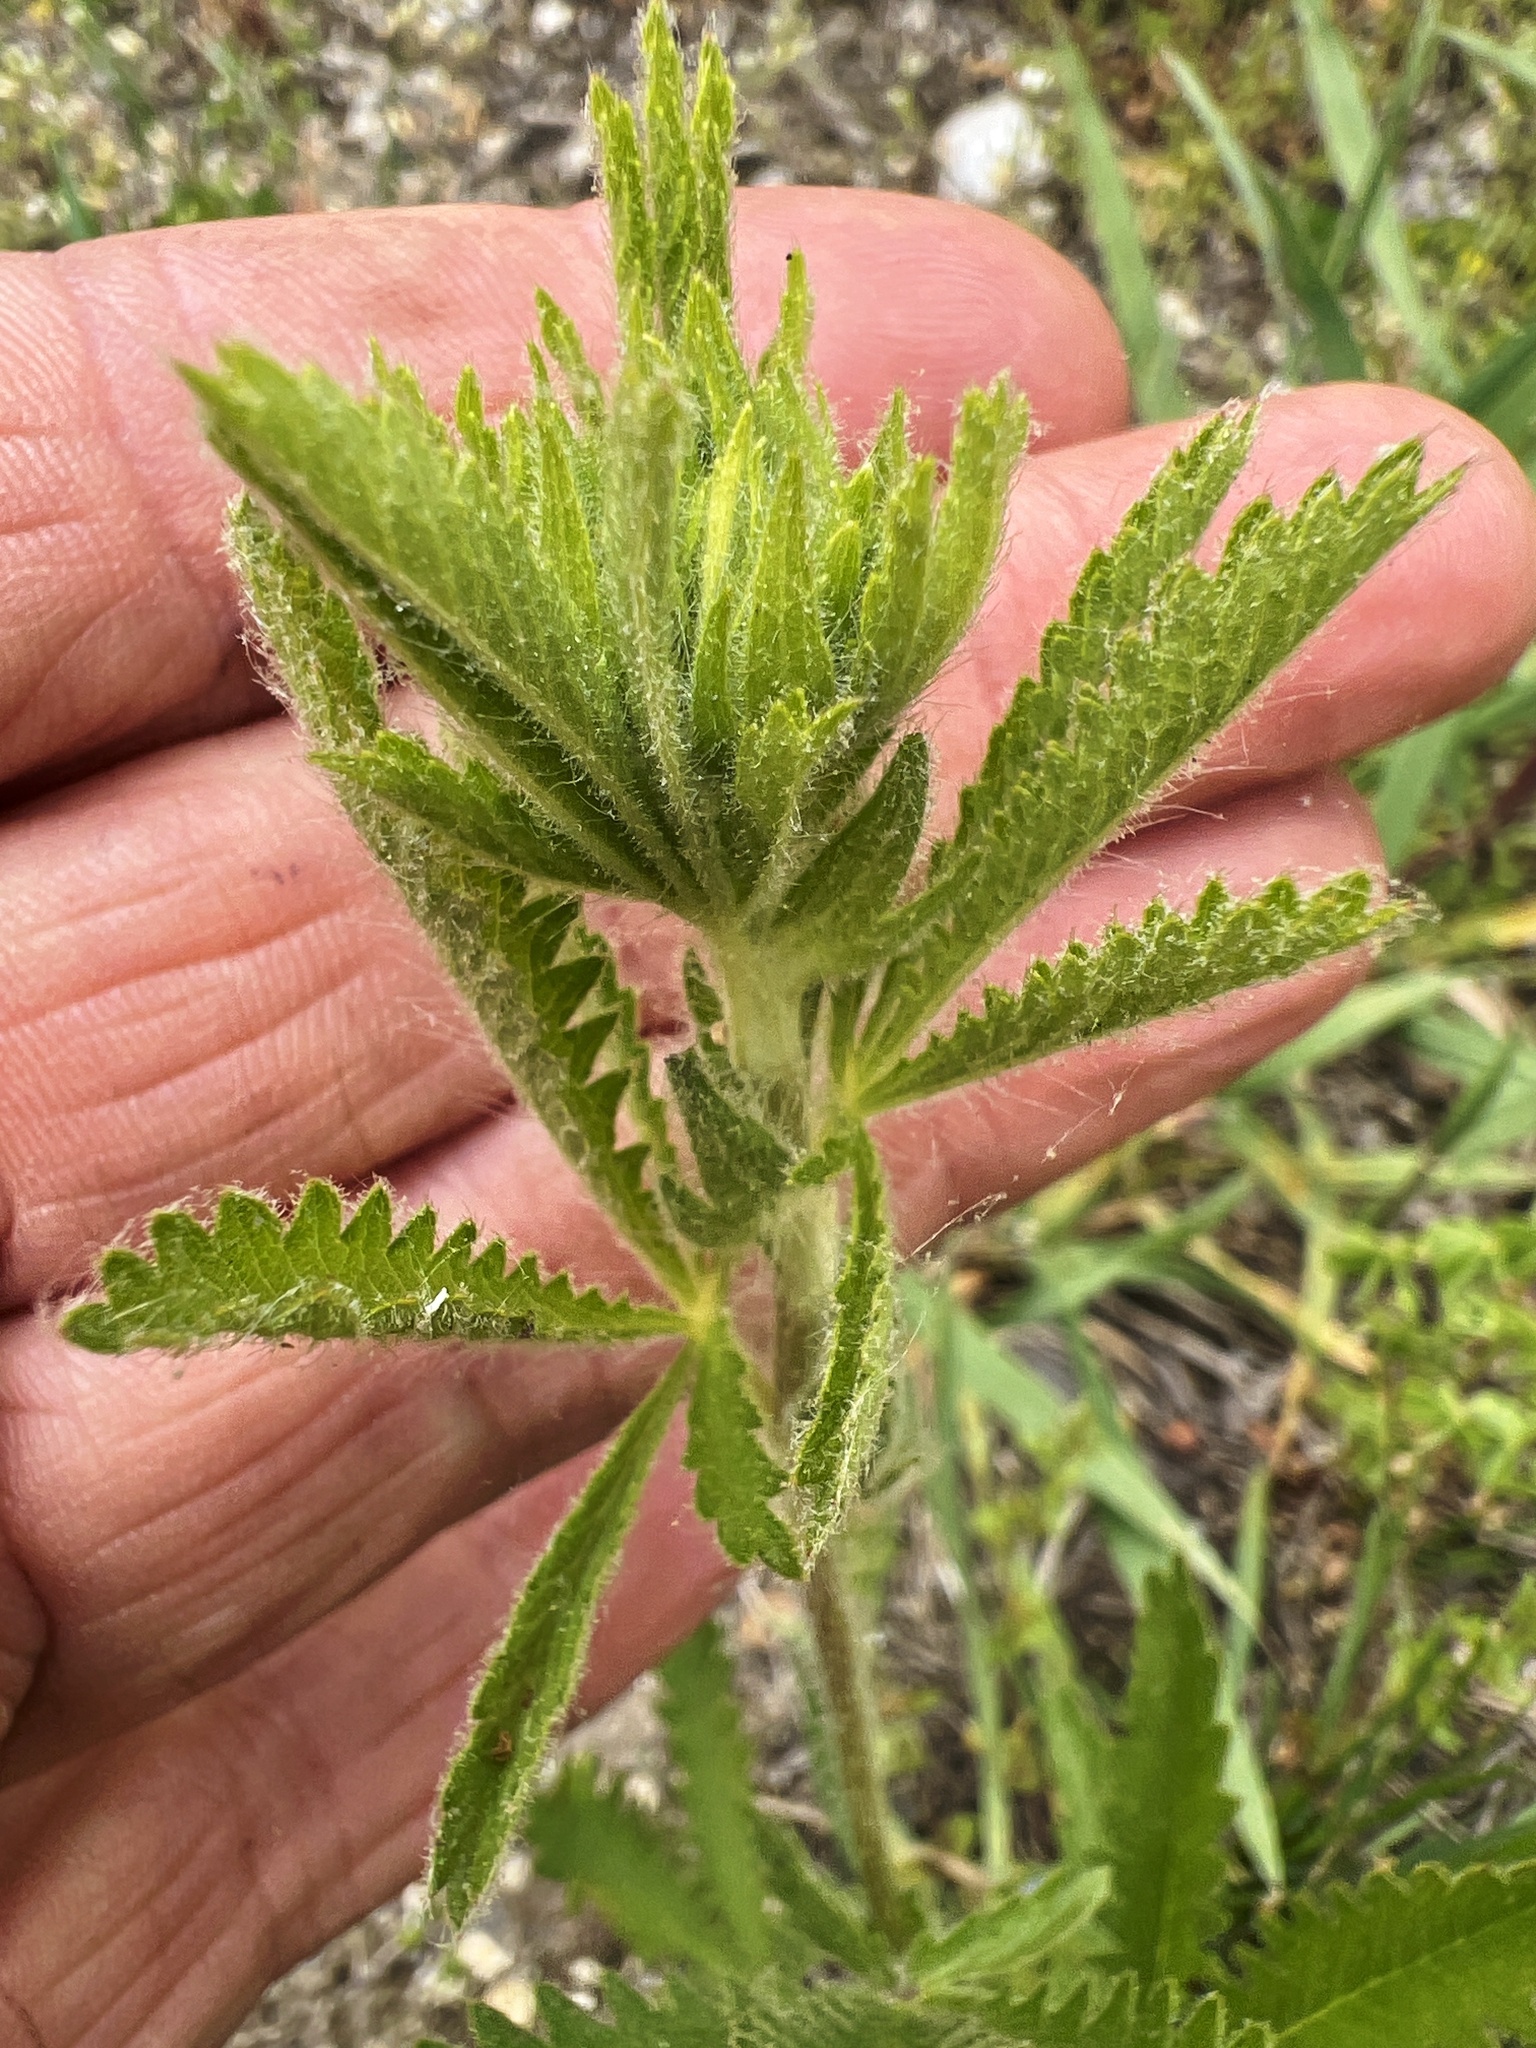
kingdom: Plantae
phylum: Tracheophyta
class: Magnoliopsida
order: Rosales
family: Rosaceae
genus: Potentilla
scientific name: Potentilla recta
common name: Sulphur cinquefoil
